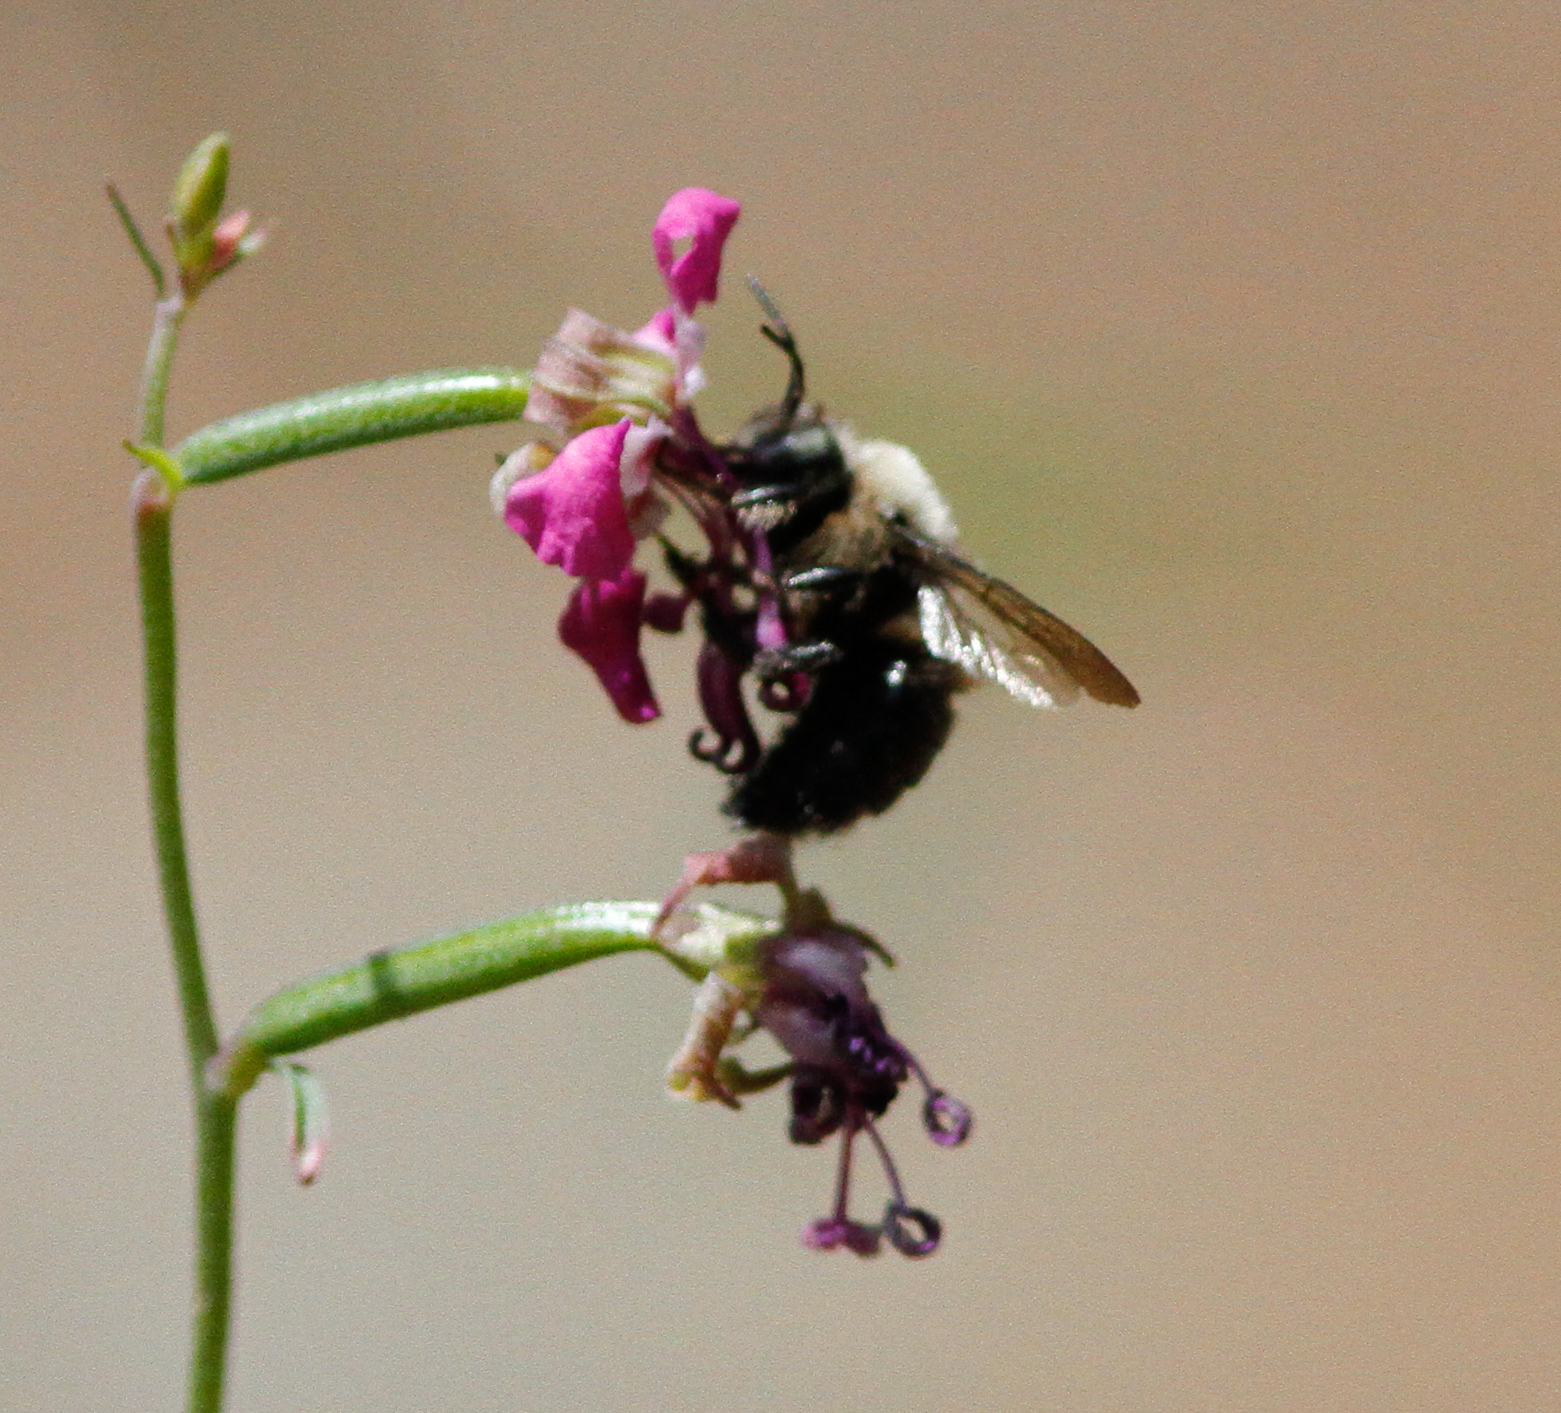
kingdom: Animalia
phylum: Arthropoda
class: Insecta
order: Hymenoptera
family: Apidae
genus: Xylocopa
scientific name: Xylocopa tabaniformis
